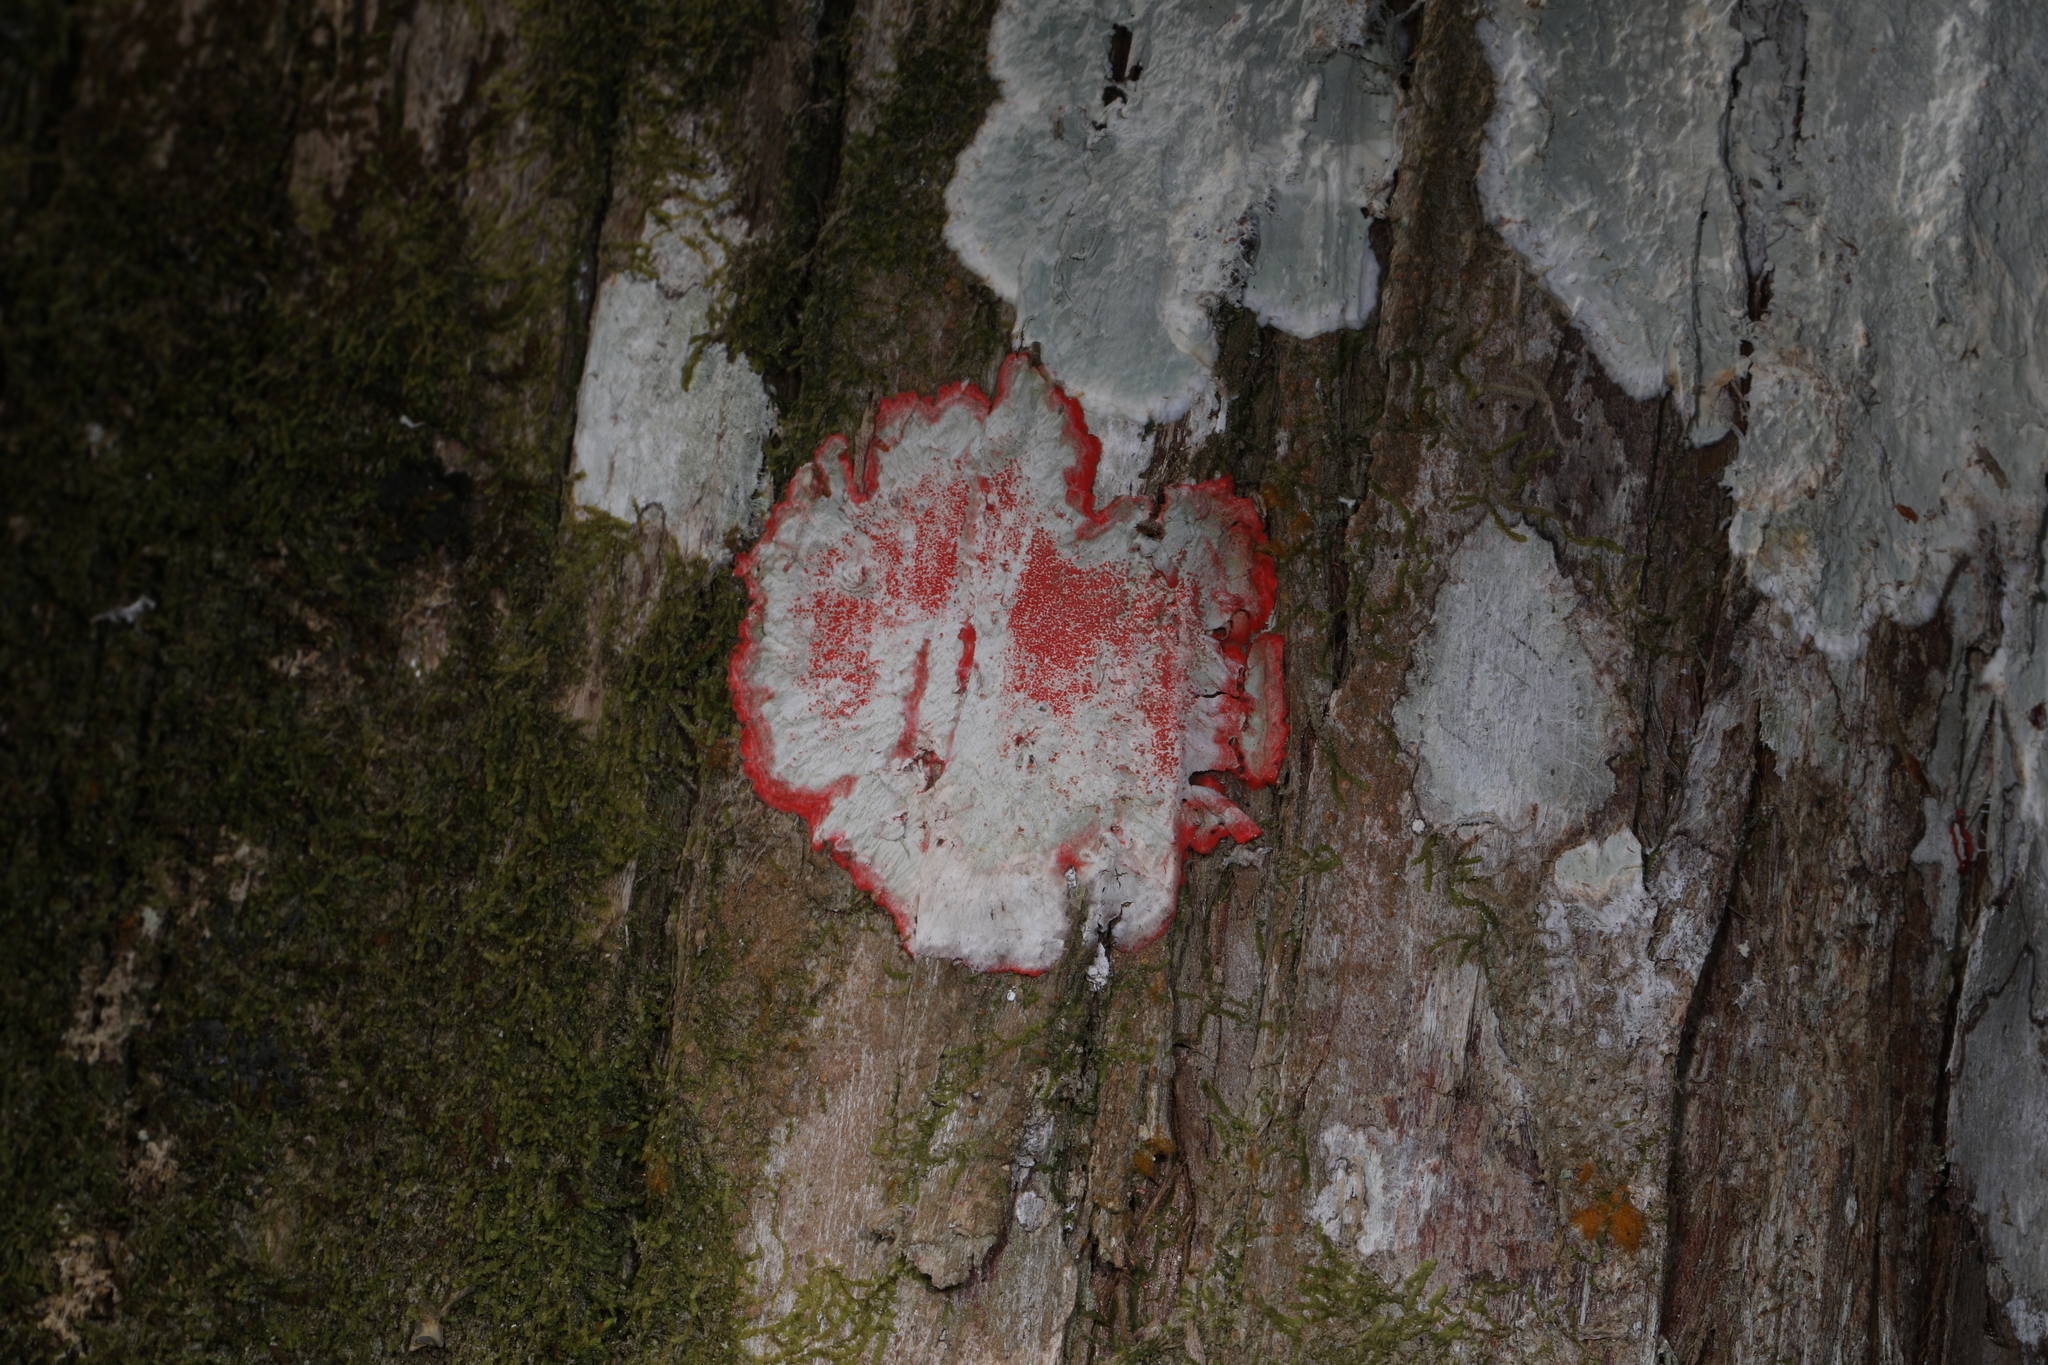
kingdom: Fungi
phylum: Ascomycota
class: Arthoniomycetes
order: Arthoniales
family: Arthoniaceae
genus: Herpothallon
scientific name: Herpothallon rubrocinctum
